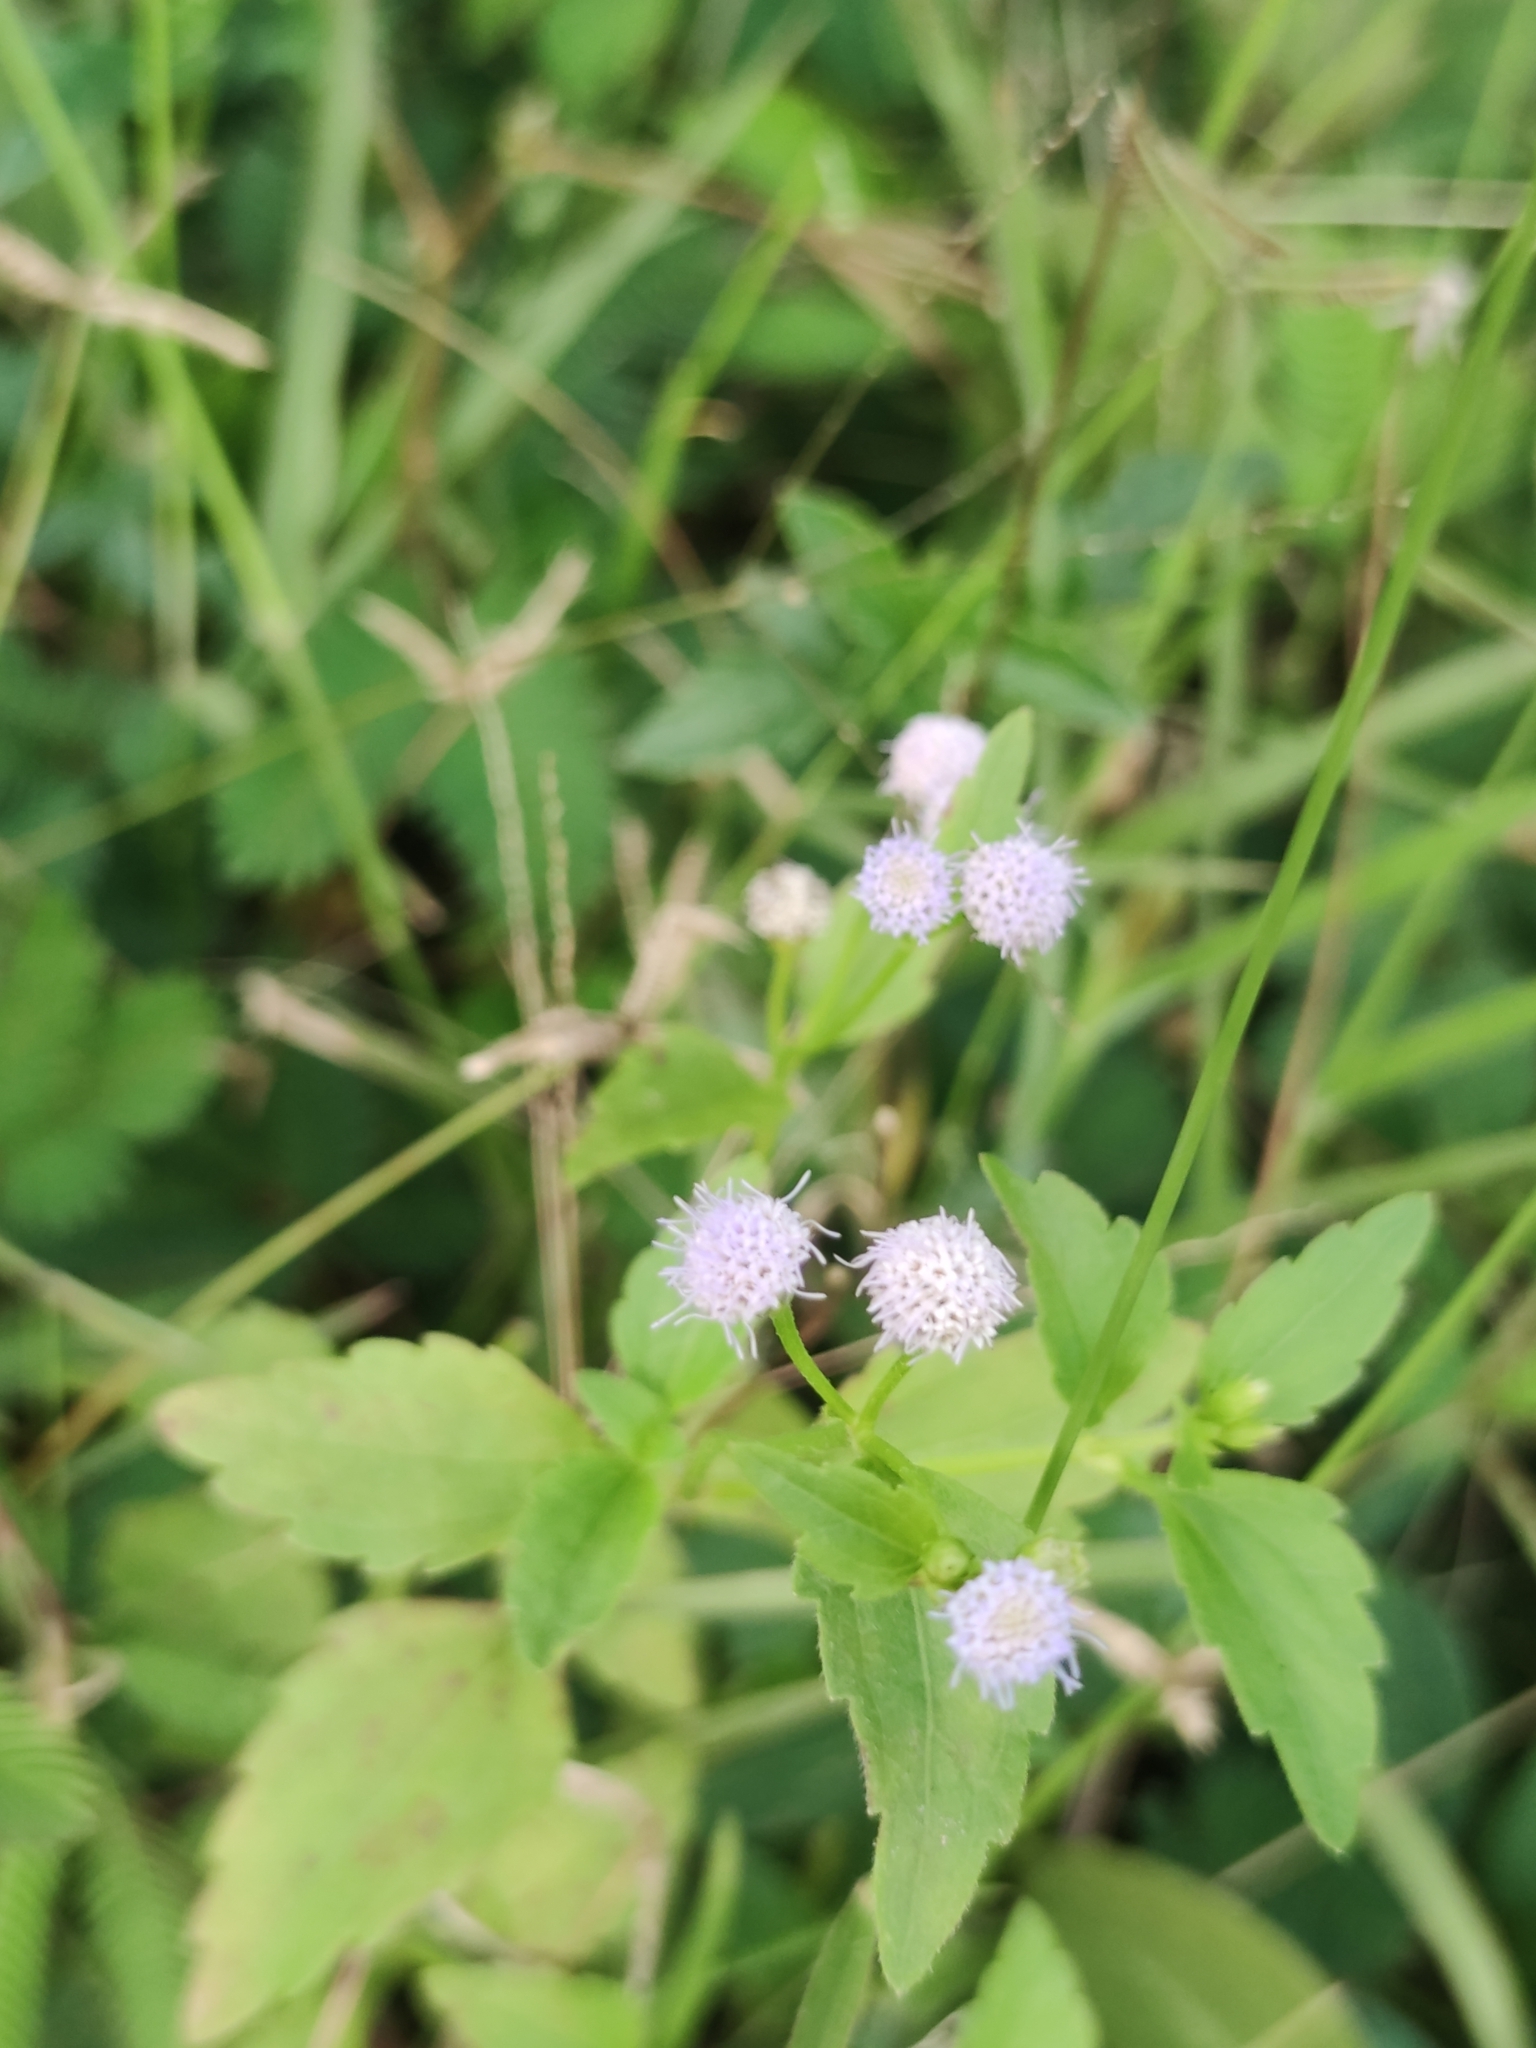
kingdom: Plantae
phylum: Tracheophyta
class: Magnoliopsida
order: Asterales
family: Asteraceae
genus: Praxelis
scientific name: Praxelis clematidea
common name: Praxelis
